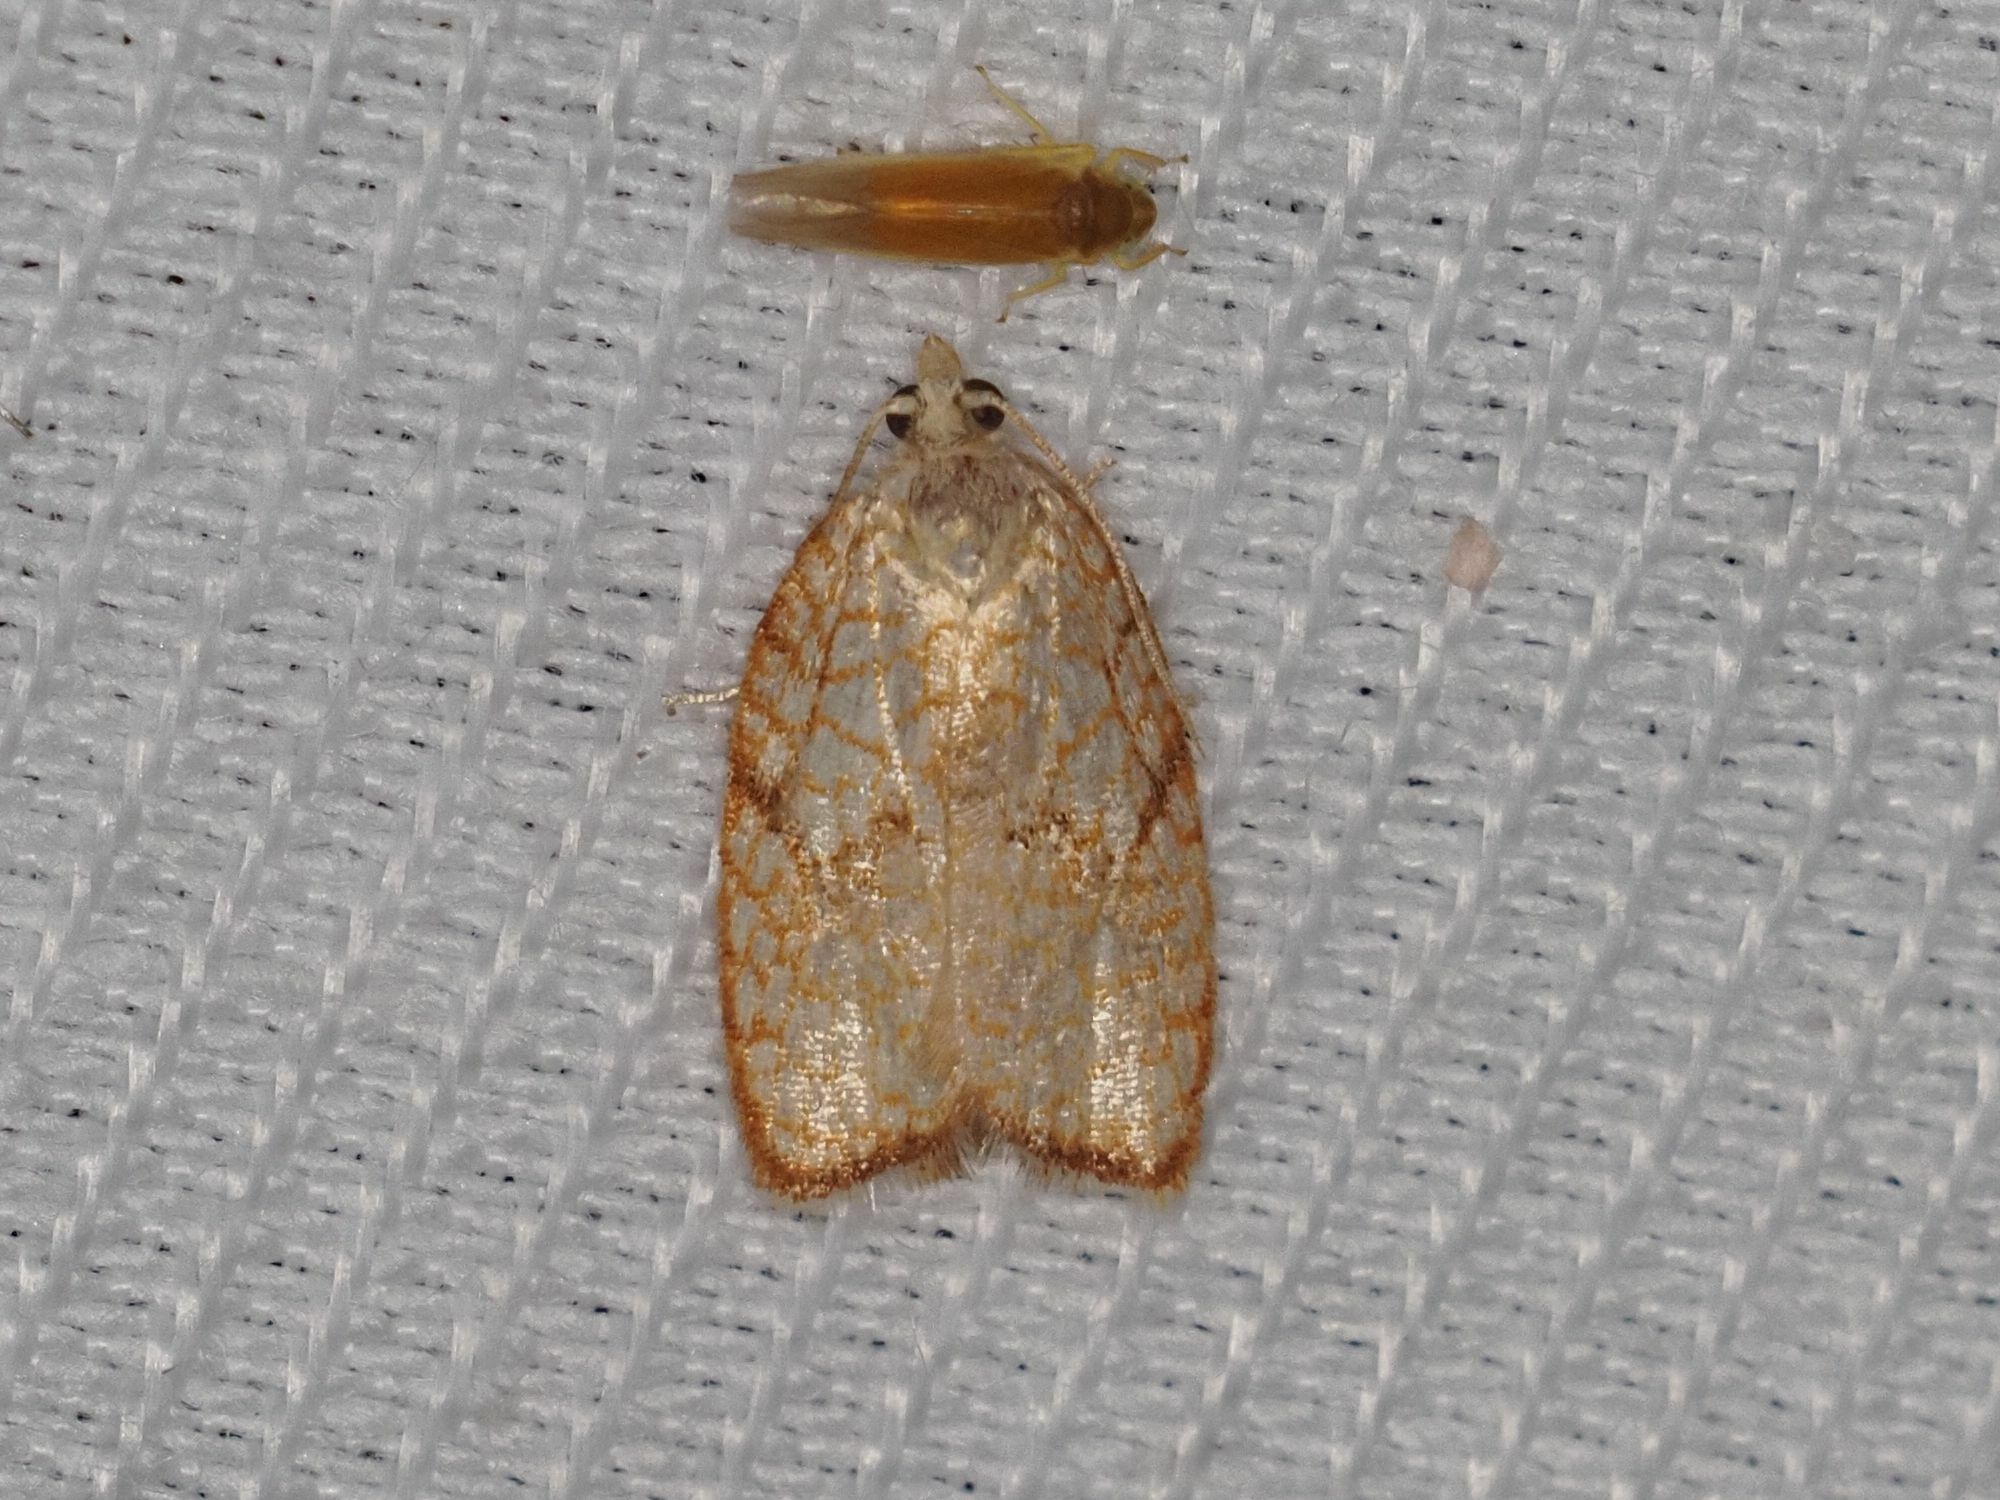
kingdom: Animalia
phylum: Arthropoda
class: Insecta
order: Lepidoptera
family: Tortricidae
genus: Acleris
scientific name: Acleris forsskaleana
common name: Maple button
